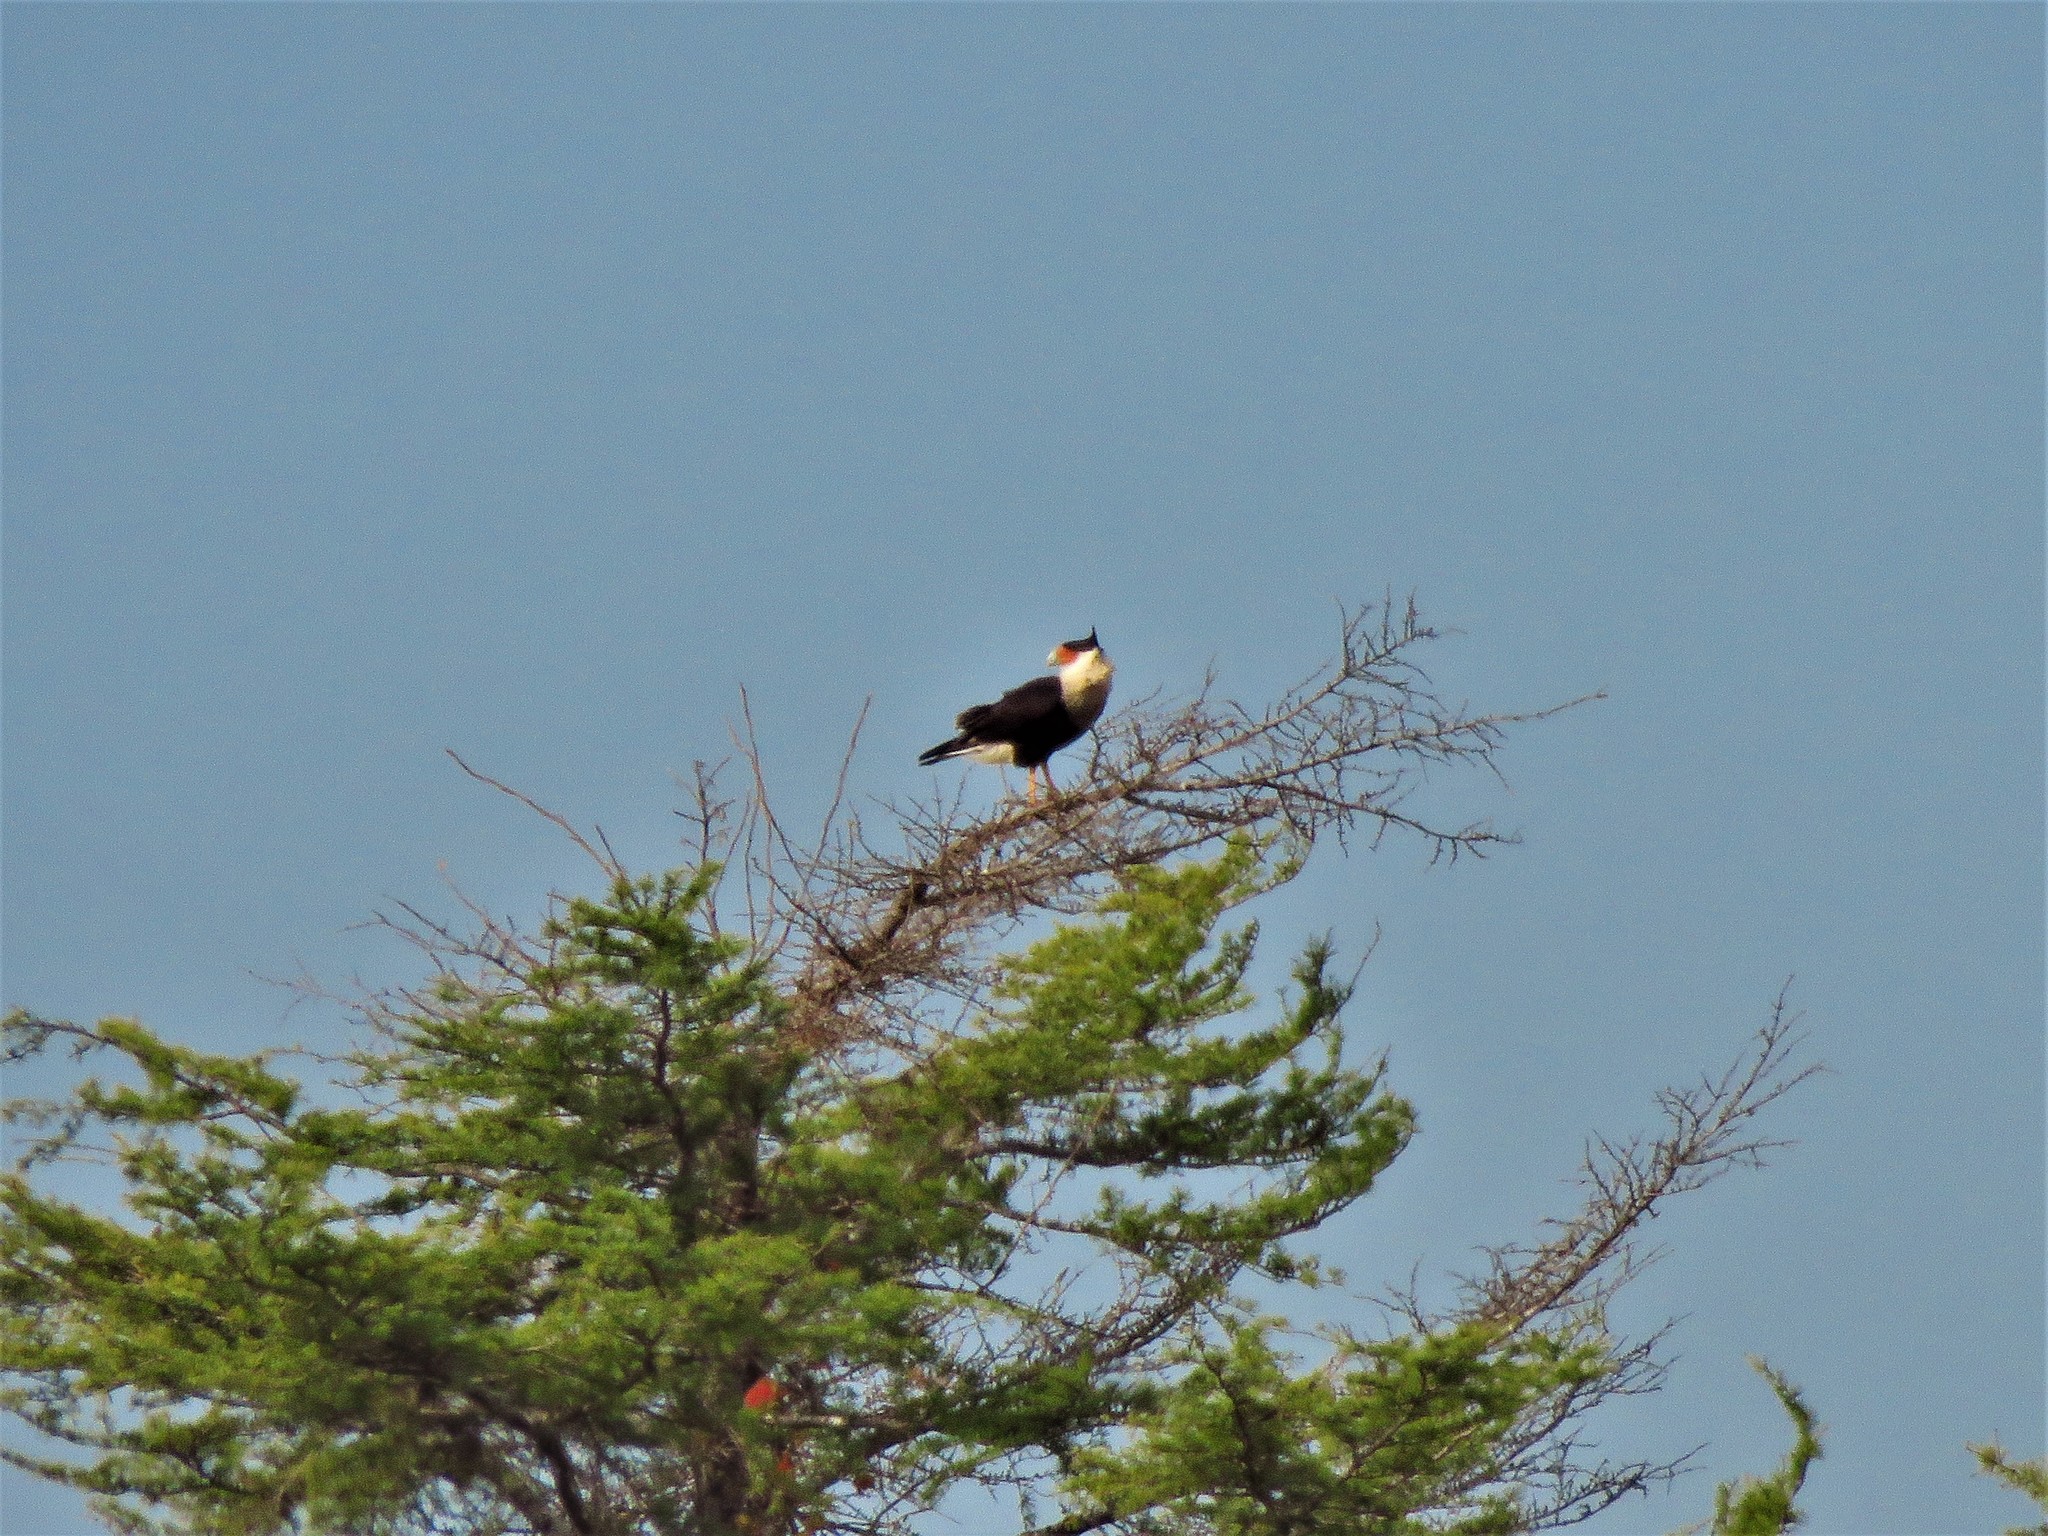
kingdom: Animalia
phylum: Chordata
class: Aves
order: Falconiformes
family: Falconidae
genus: Caracara
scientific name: Caracara plancus
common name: Southern caracara
